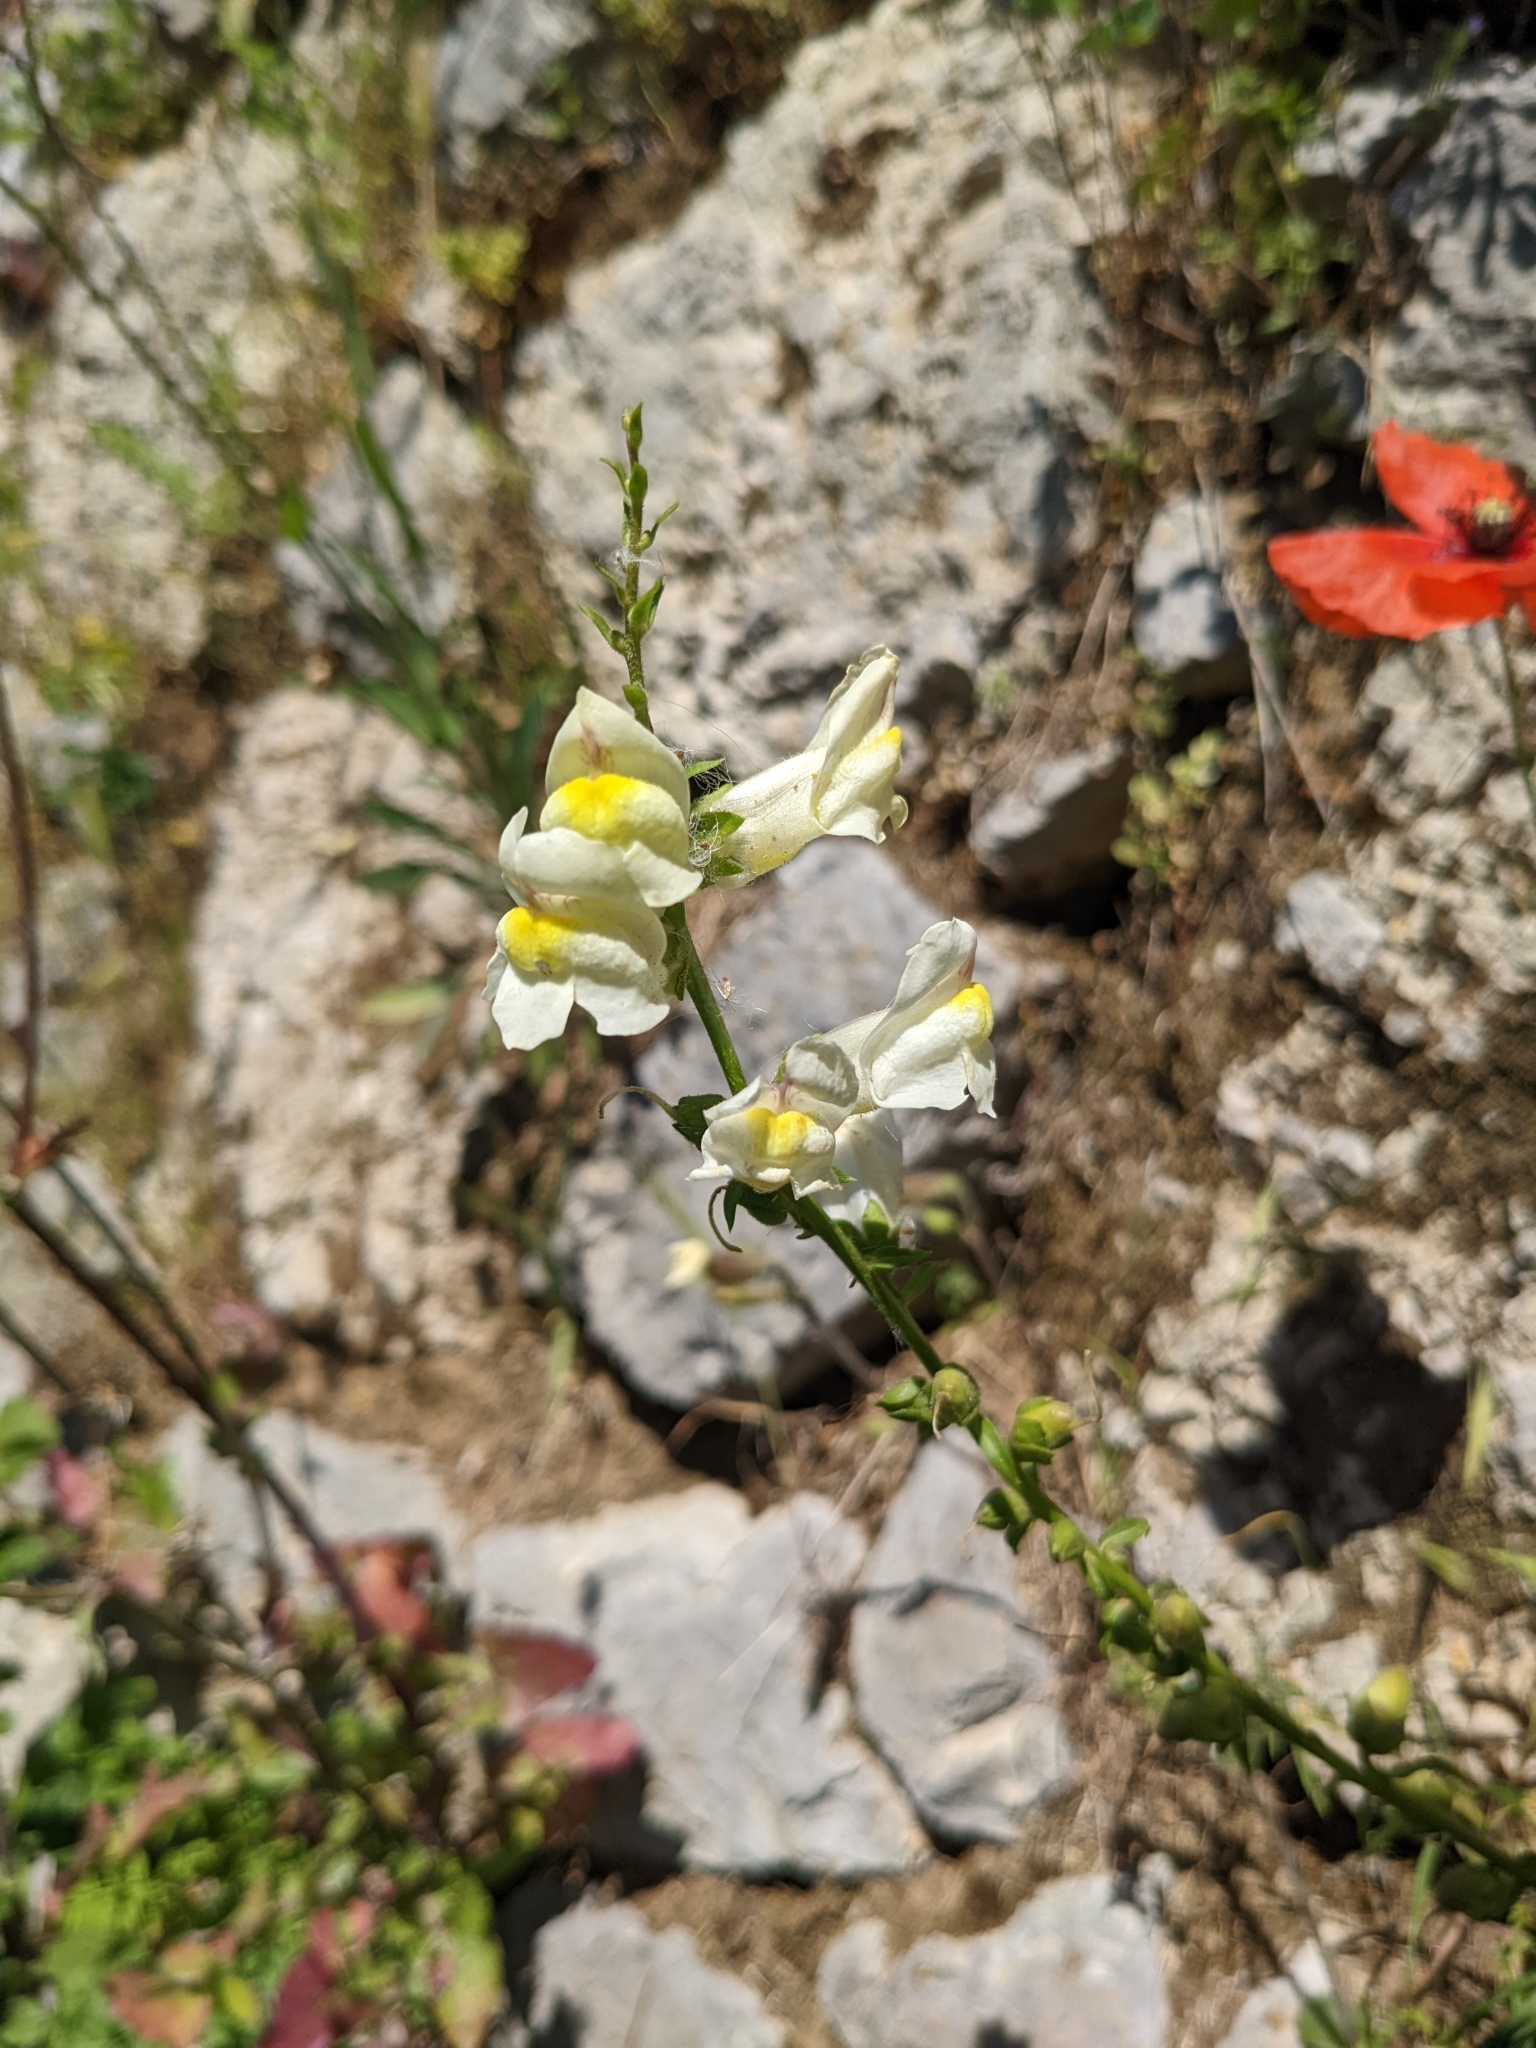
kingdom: Plantae
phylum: Tracheophyta
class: Magnoliopsida
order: Lamiales
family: Plantaginaceae
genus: Antirrhinum
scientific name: Antirrhinum siculum
